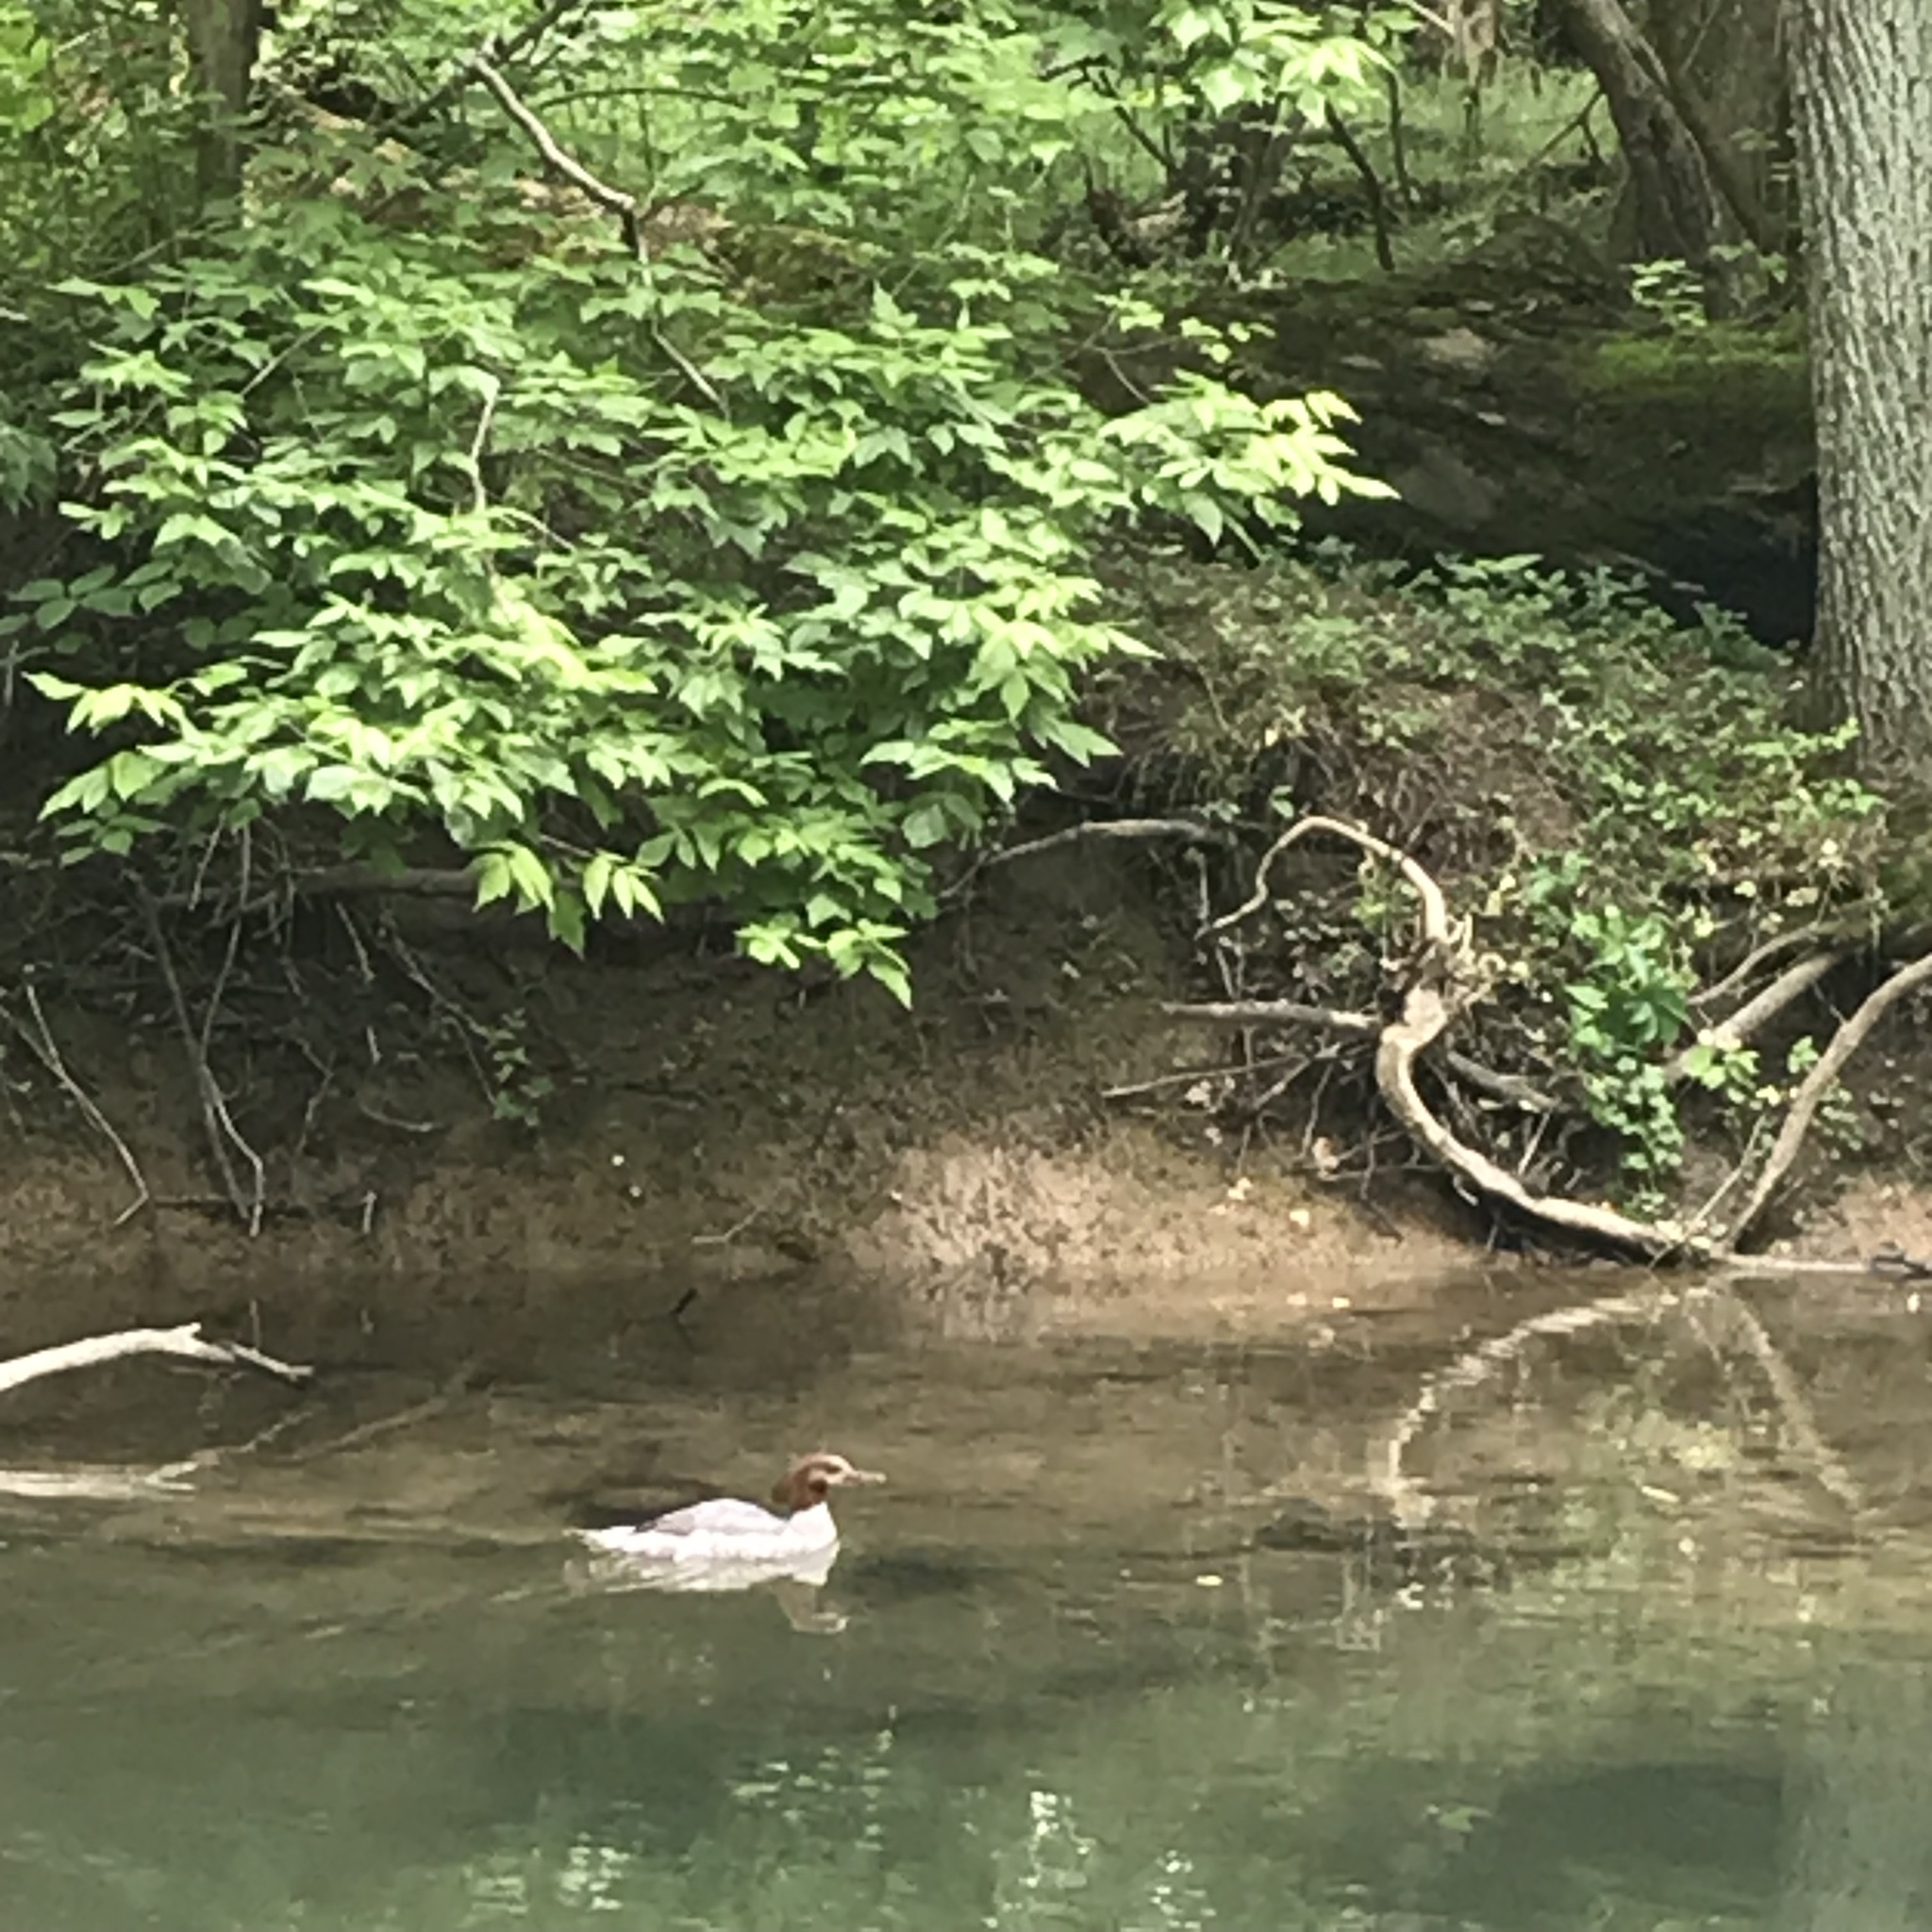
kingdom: Animalia
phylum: Chordata
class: Aves
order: Anseriformes
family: Anatidae
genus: Mergus
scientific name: Mergus merganser
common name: Common merganser
